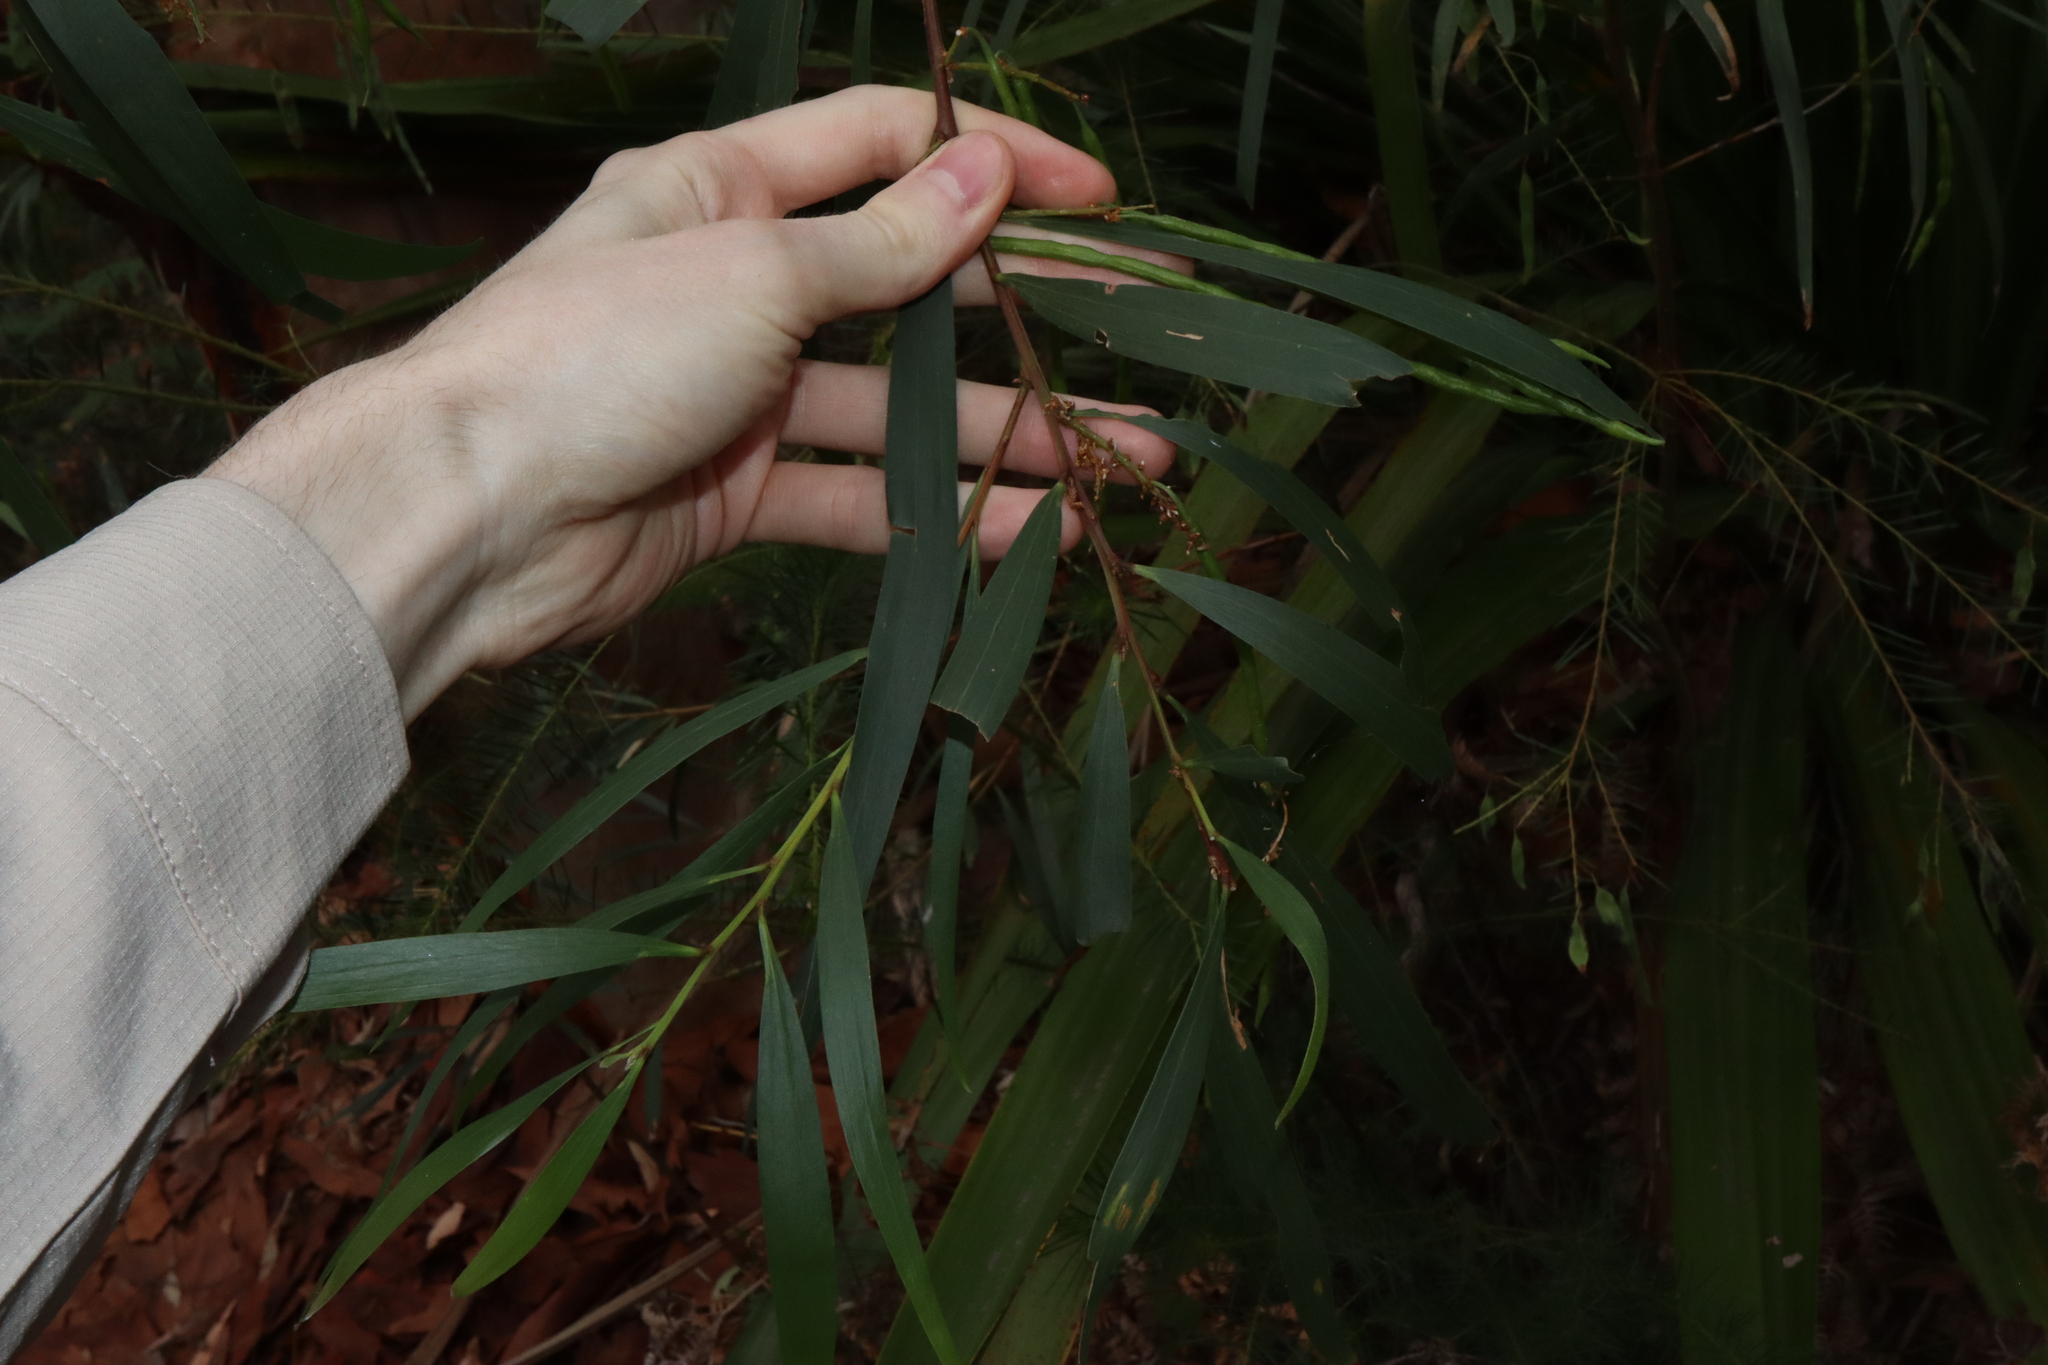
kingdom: Plantae
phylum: Tracheophyta
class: Magnoliopsida
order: Fabales
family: Fabaceae
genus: Acacia
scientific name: Acacia longifolia
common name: Sydney golden wattle
